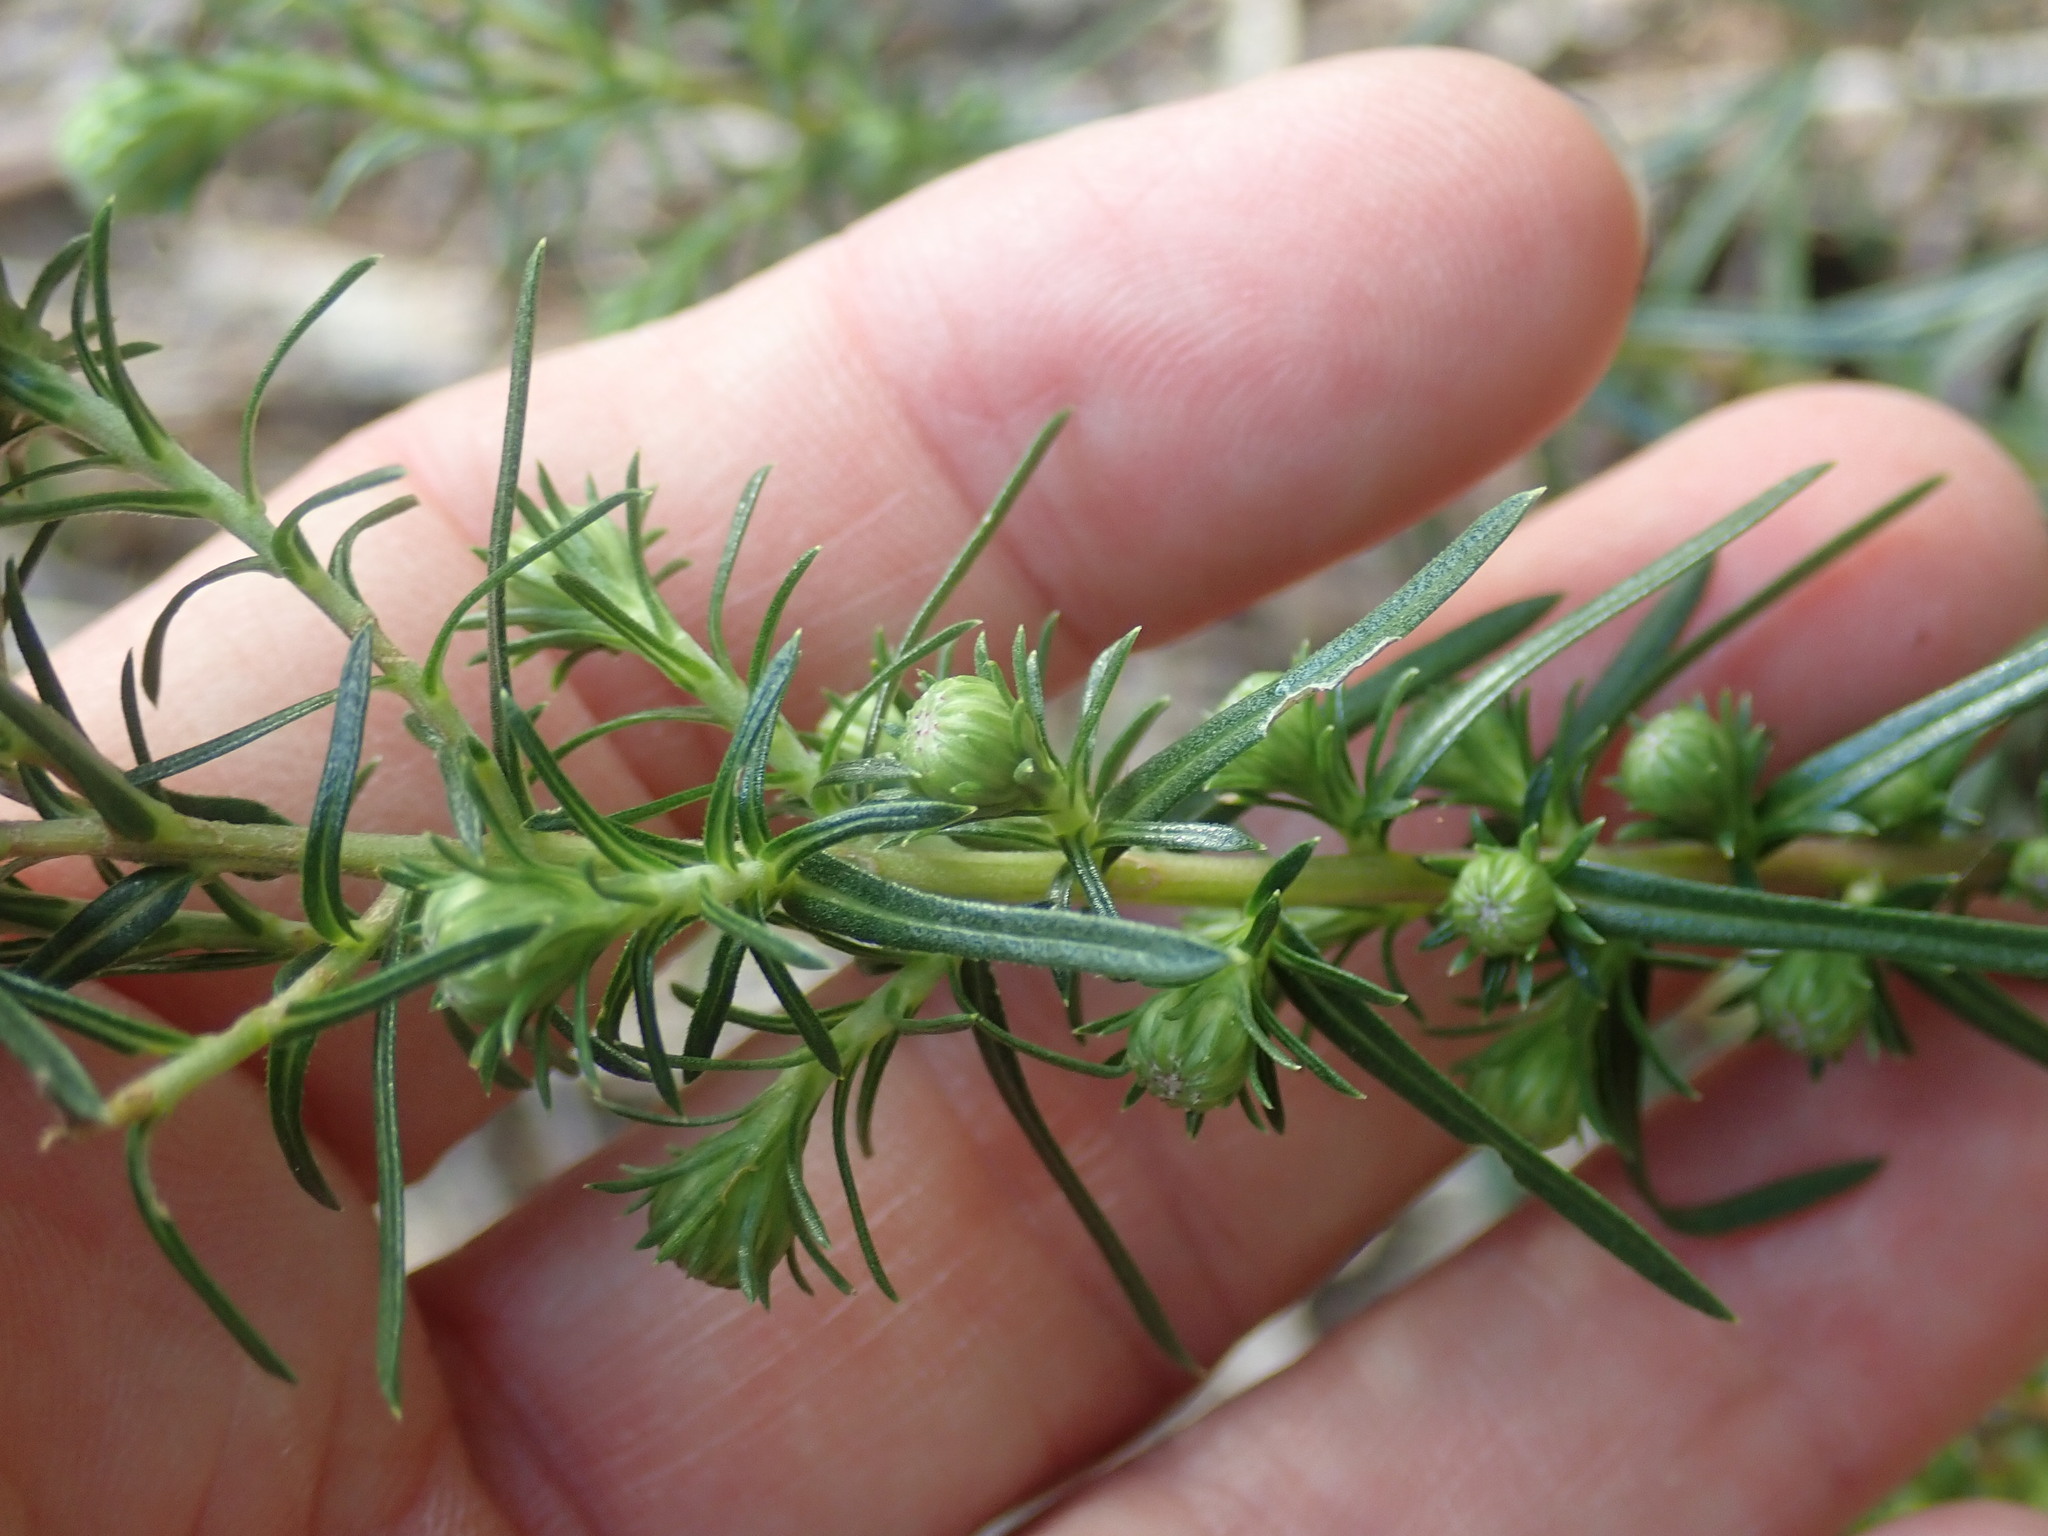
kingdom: Plantae
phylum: Tracheophyta
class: Magnoliopsida
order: Asterales
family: Asteraceae
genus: Ionactis
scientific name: Ionactis linariifolia
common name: Flax-leaf aster
